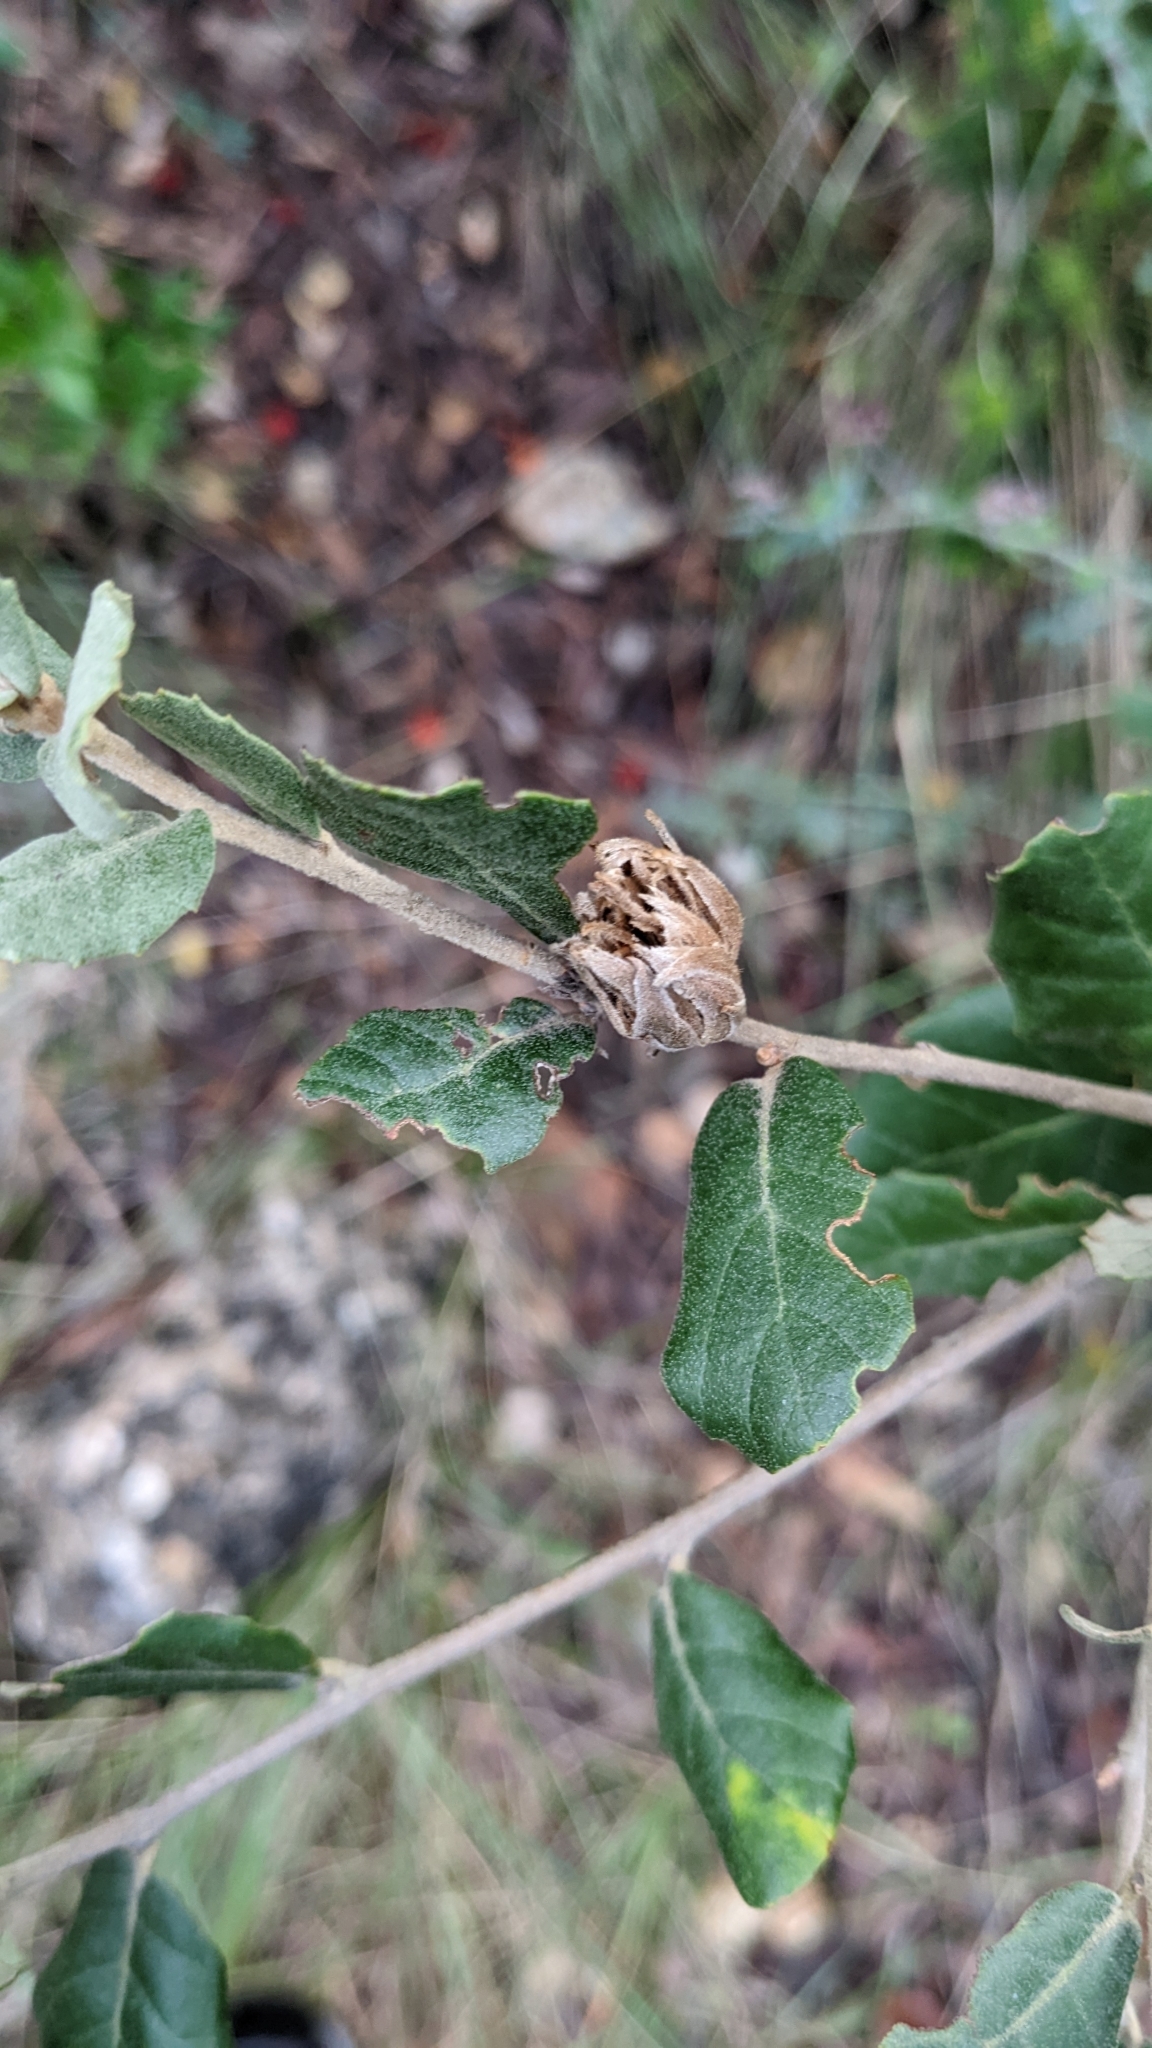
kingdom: Animalia
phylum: Arthropoda
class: Insecta
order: Diptera
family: Cecidomyiidae
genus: Blastodiplosis
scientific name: Blastodiplosis cocciferae
